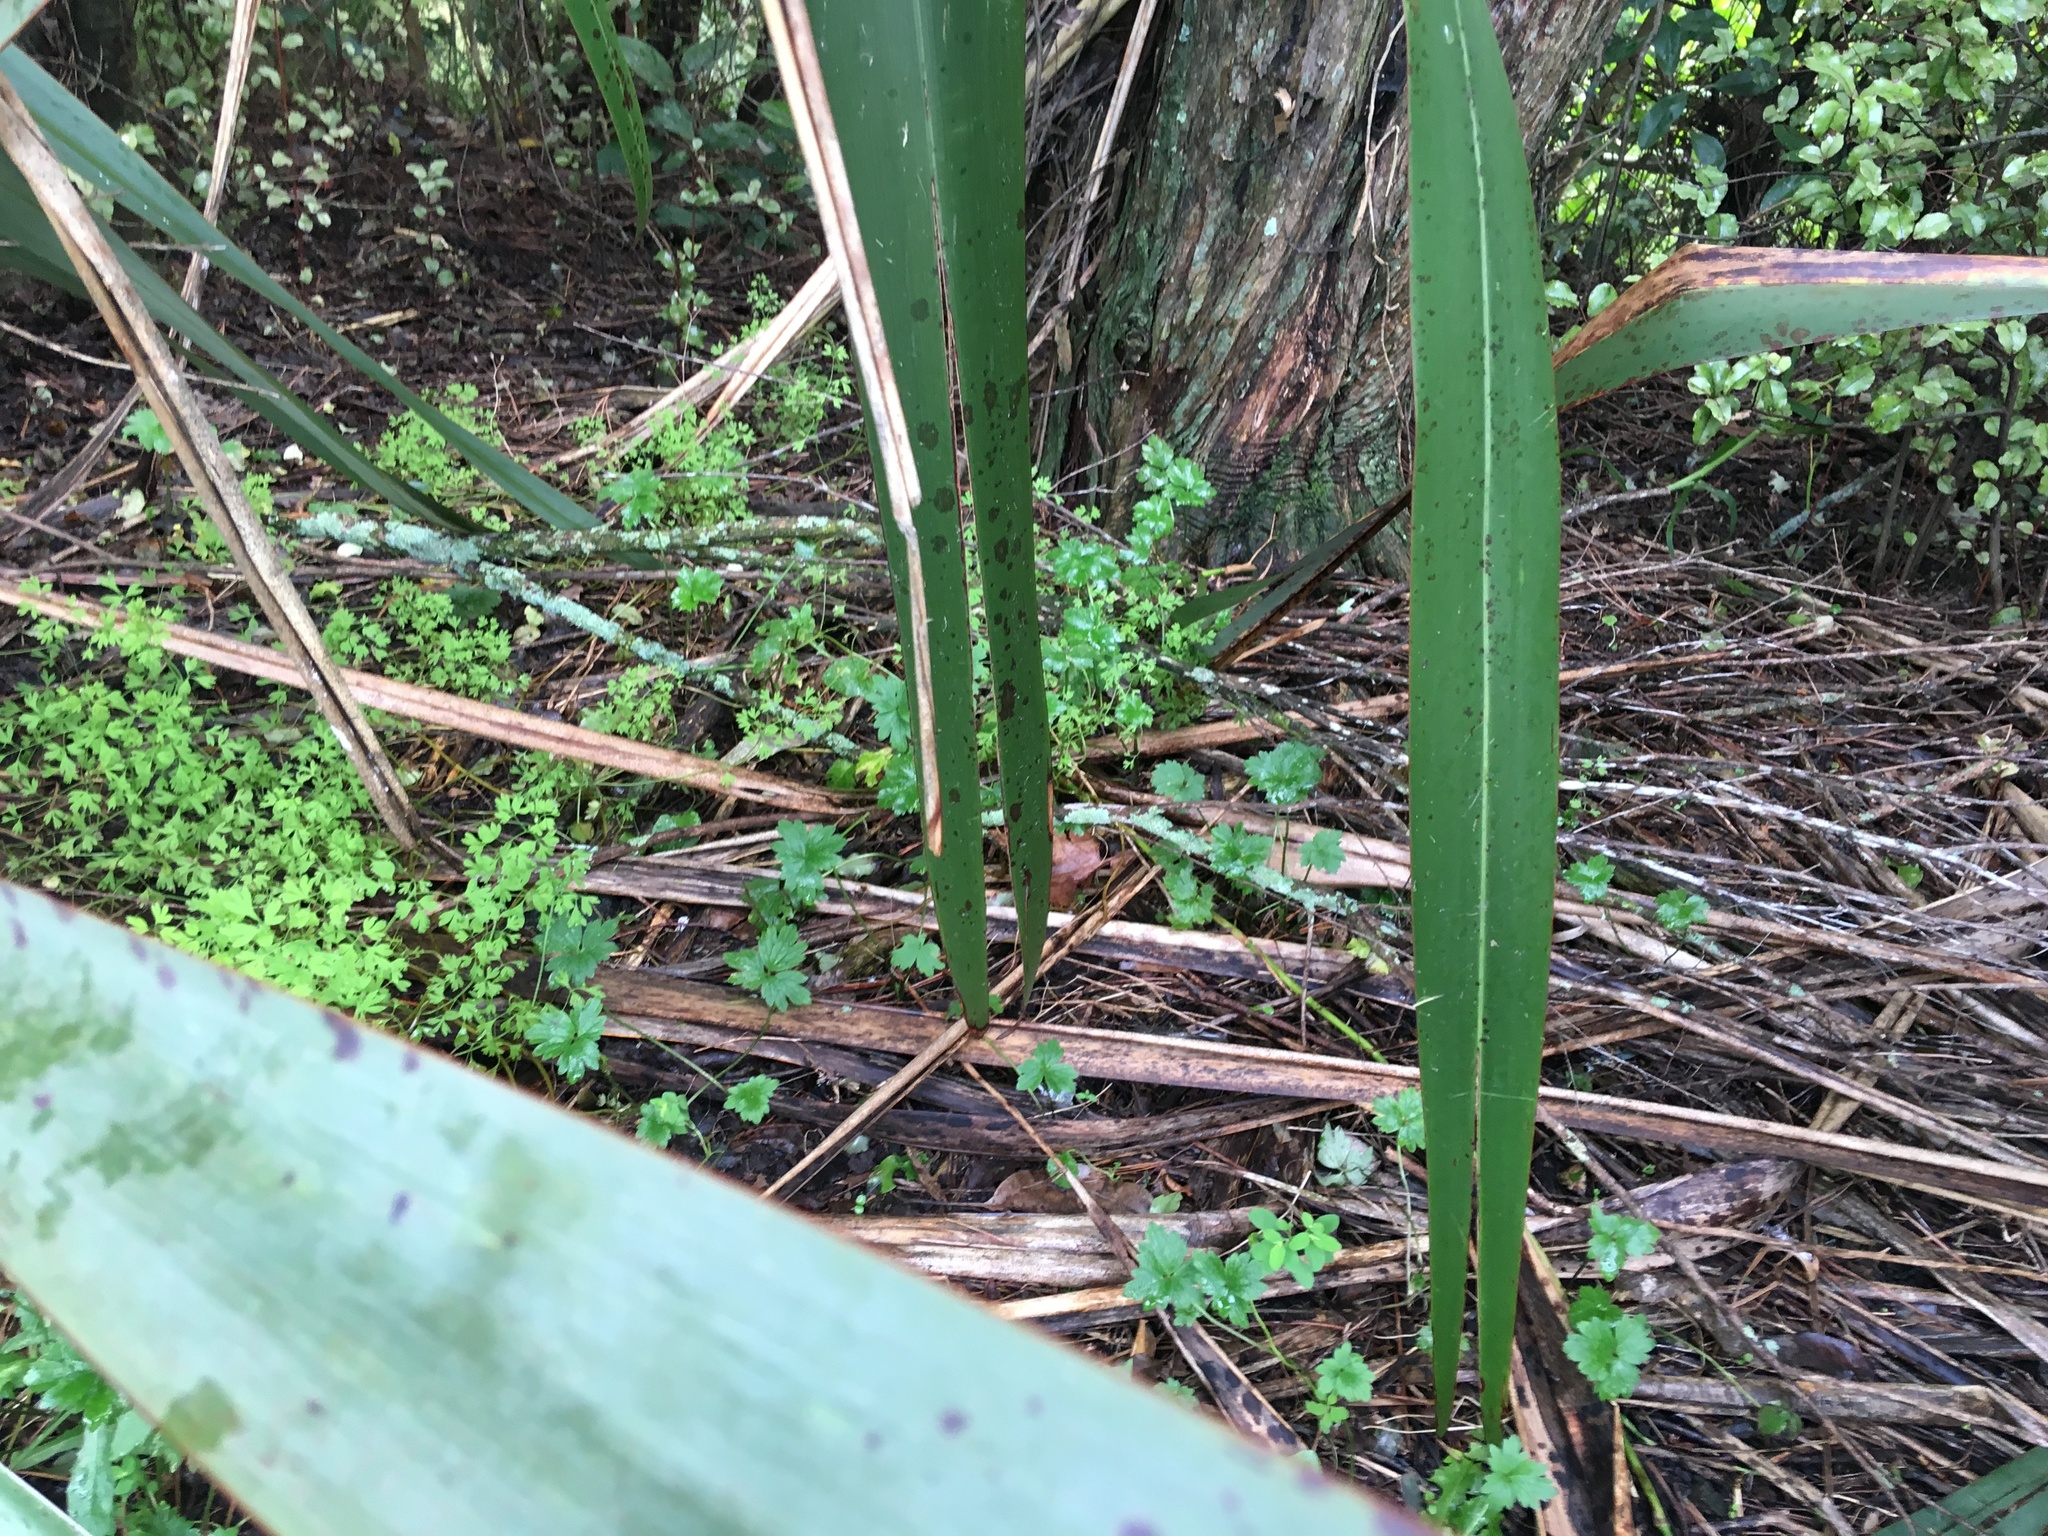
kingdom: Plantae
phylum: Tracheophyta
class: Magnoliopsida
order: Ranunculales
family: Ranunculaceae
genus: Ranunculus
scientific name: Ranunculus repens
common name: Creeping buttercup
